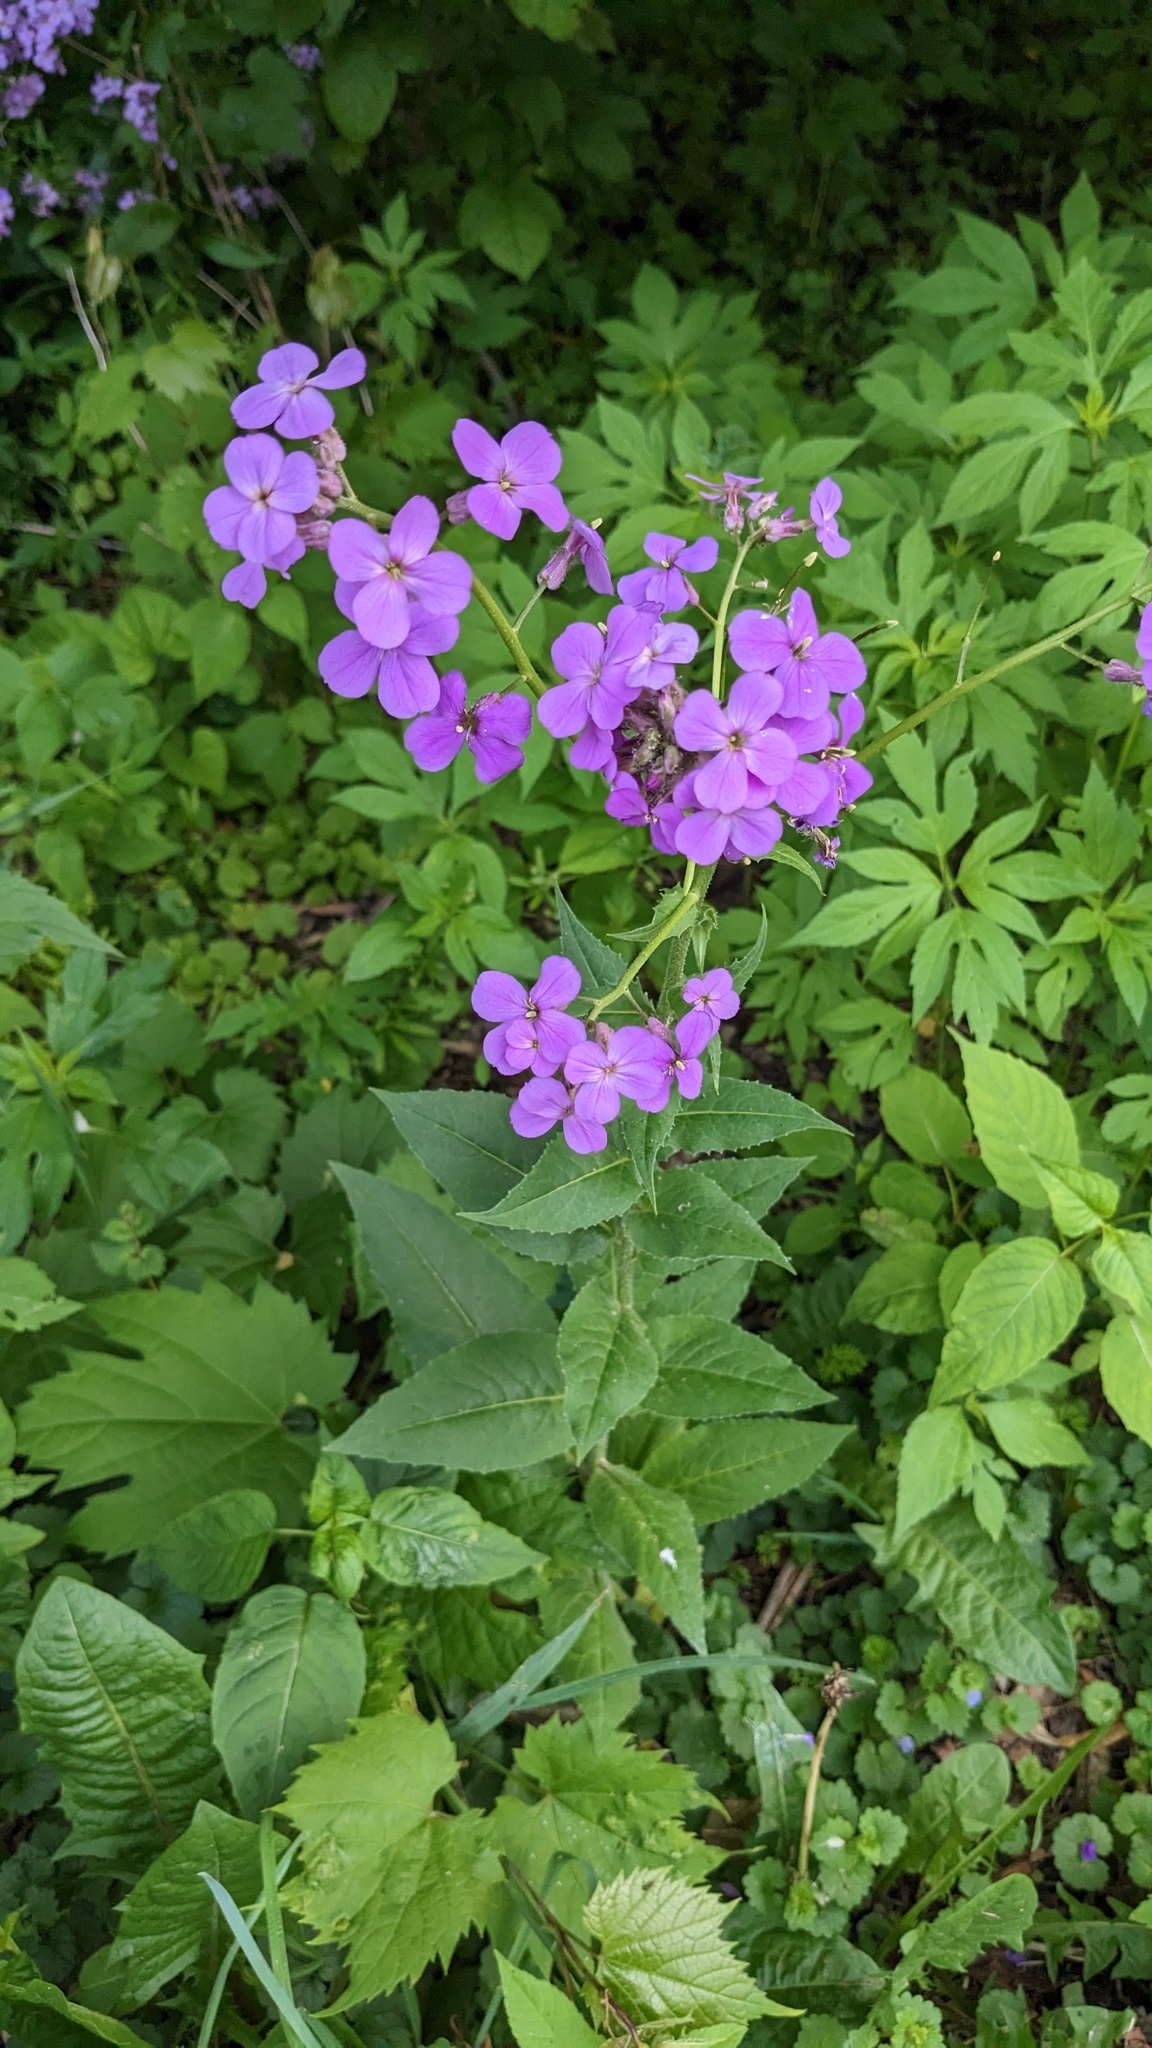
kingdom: Plantae
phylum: Tracheophyta
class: Magnoliopsida
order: Brassicales
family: Brassicaceae
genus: Hesperis
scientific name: Hesperis matronalis
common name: Dame's-violet
